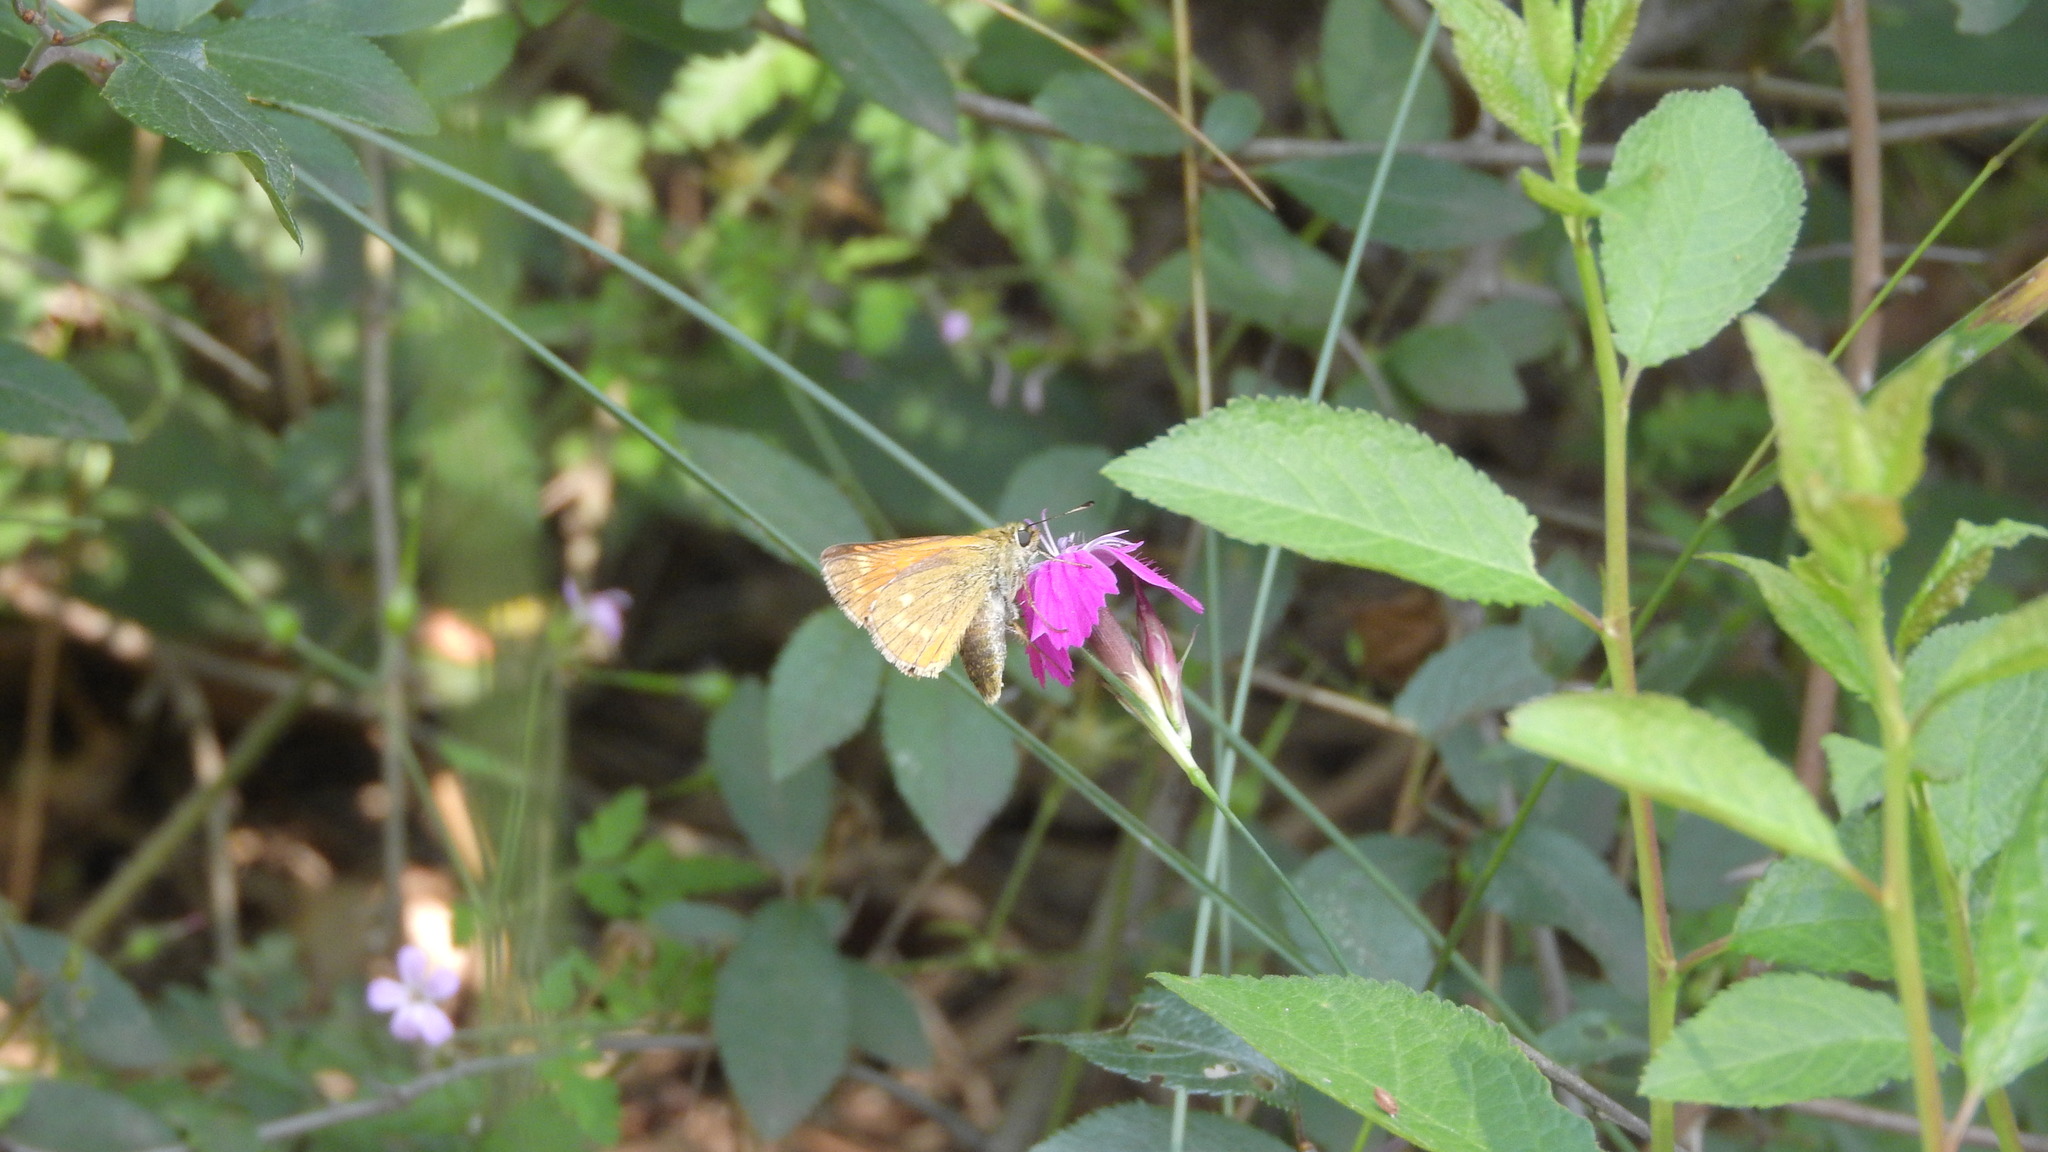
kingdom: Animalia
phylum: Arthropoda
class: Insecta
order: Lepidoptera
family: Hesperiidae
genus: Ochlodes
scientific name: Ochlodes venata
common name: Large skipper
